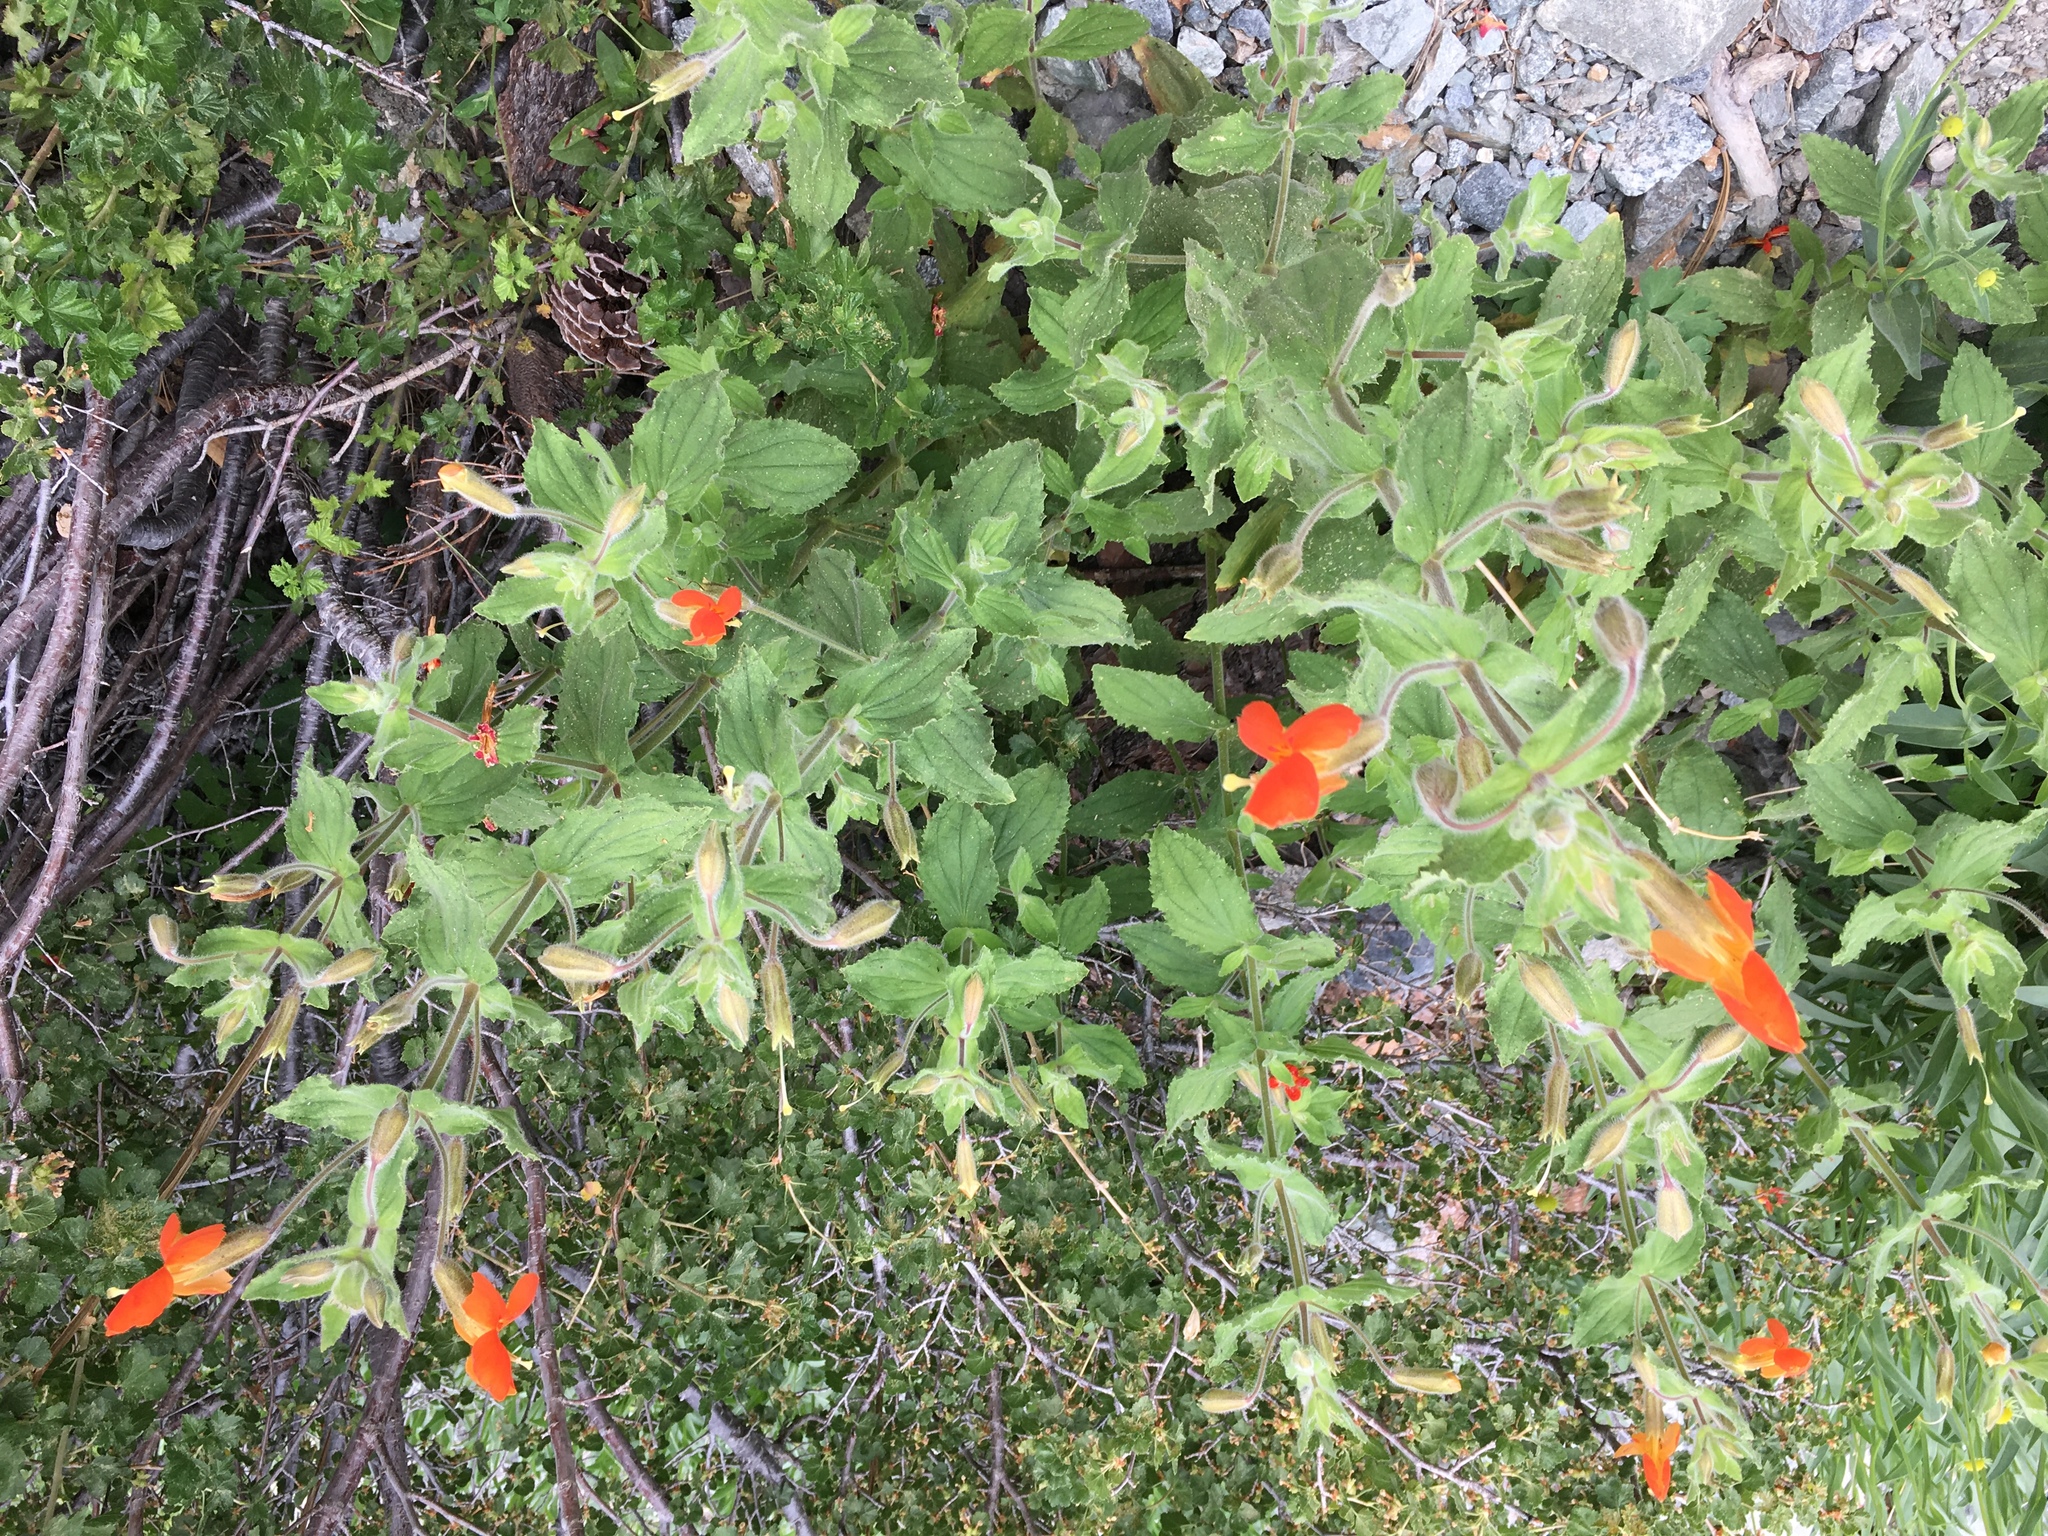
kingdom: Plantae
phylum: Tracheophyta
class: Magnoliopsida
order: Lamiales
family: Phrymaceae
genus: Erythranthe
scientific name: Erythranthe cardinalis
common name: Scarlet monkey-flower
